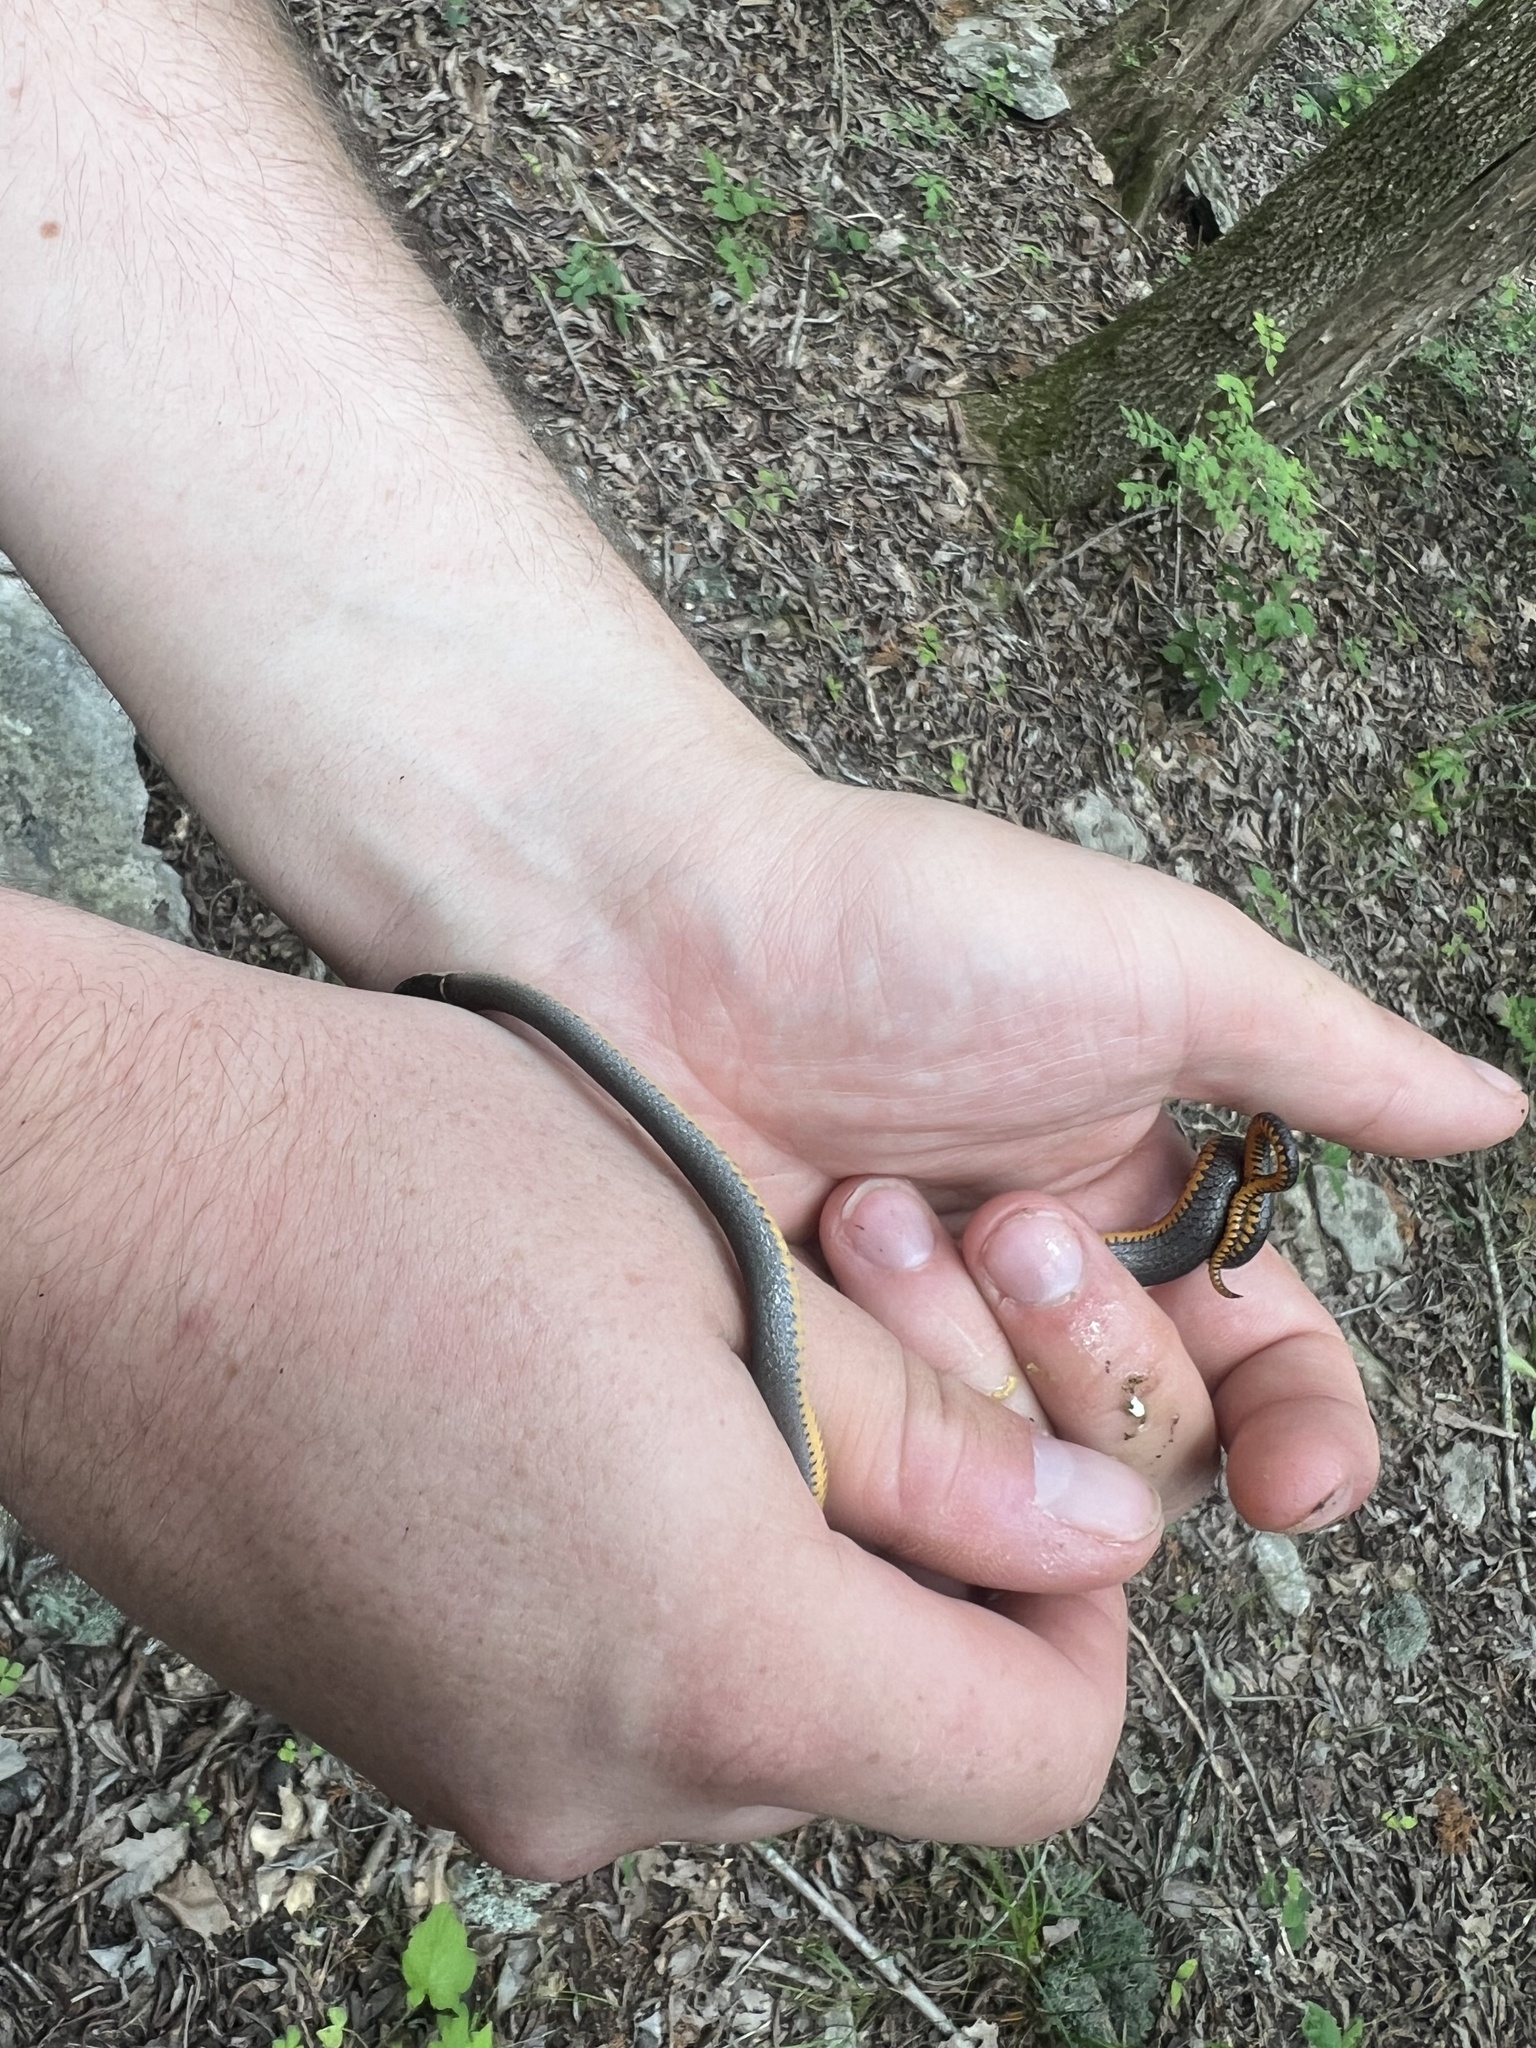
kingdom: Animalia
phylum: Chordata
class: Squamata
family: Colubridae
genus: Diadophis
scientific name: Diadophis punctatus
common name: Ringneck snake
